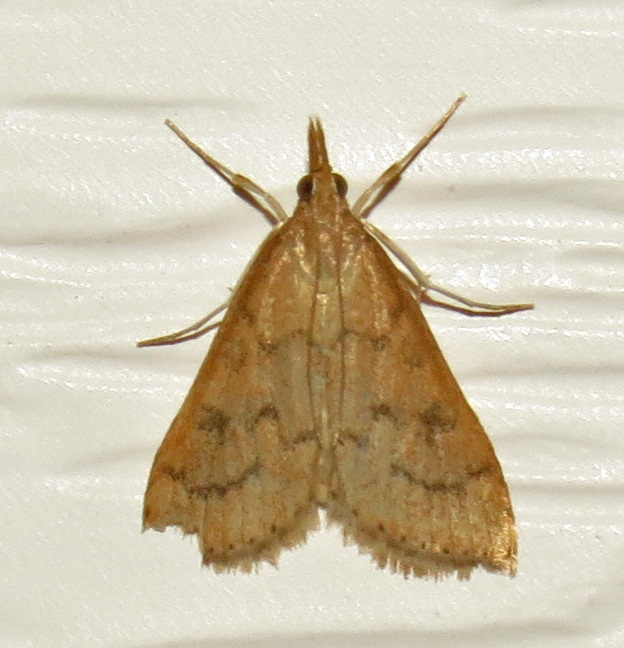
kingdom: Animalia
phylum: Arthropoda
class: Insecta
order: Lepidoptera
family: Crambidae
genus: Udea
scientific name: Udea rubigalis
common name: Celery leaftier moth
